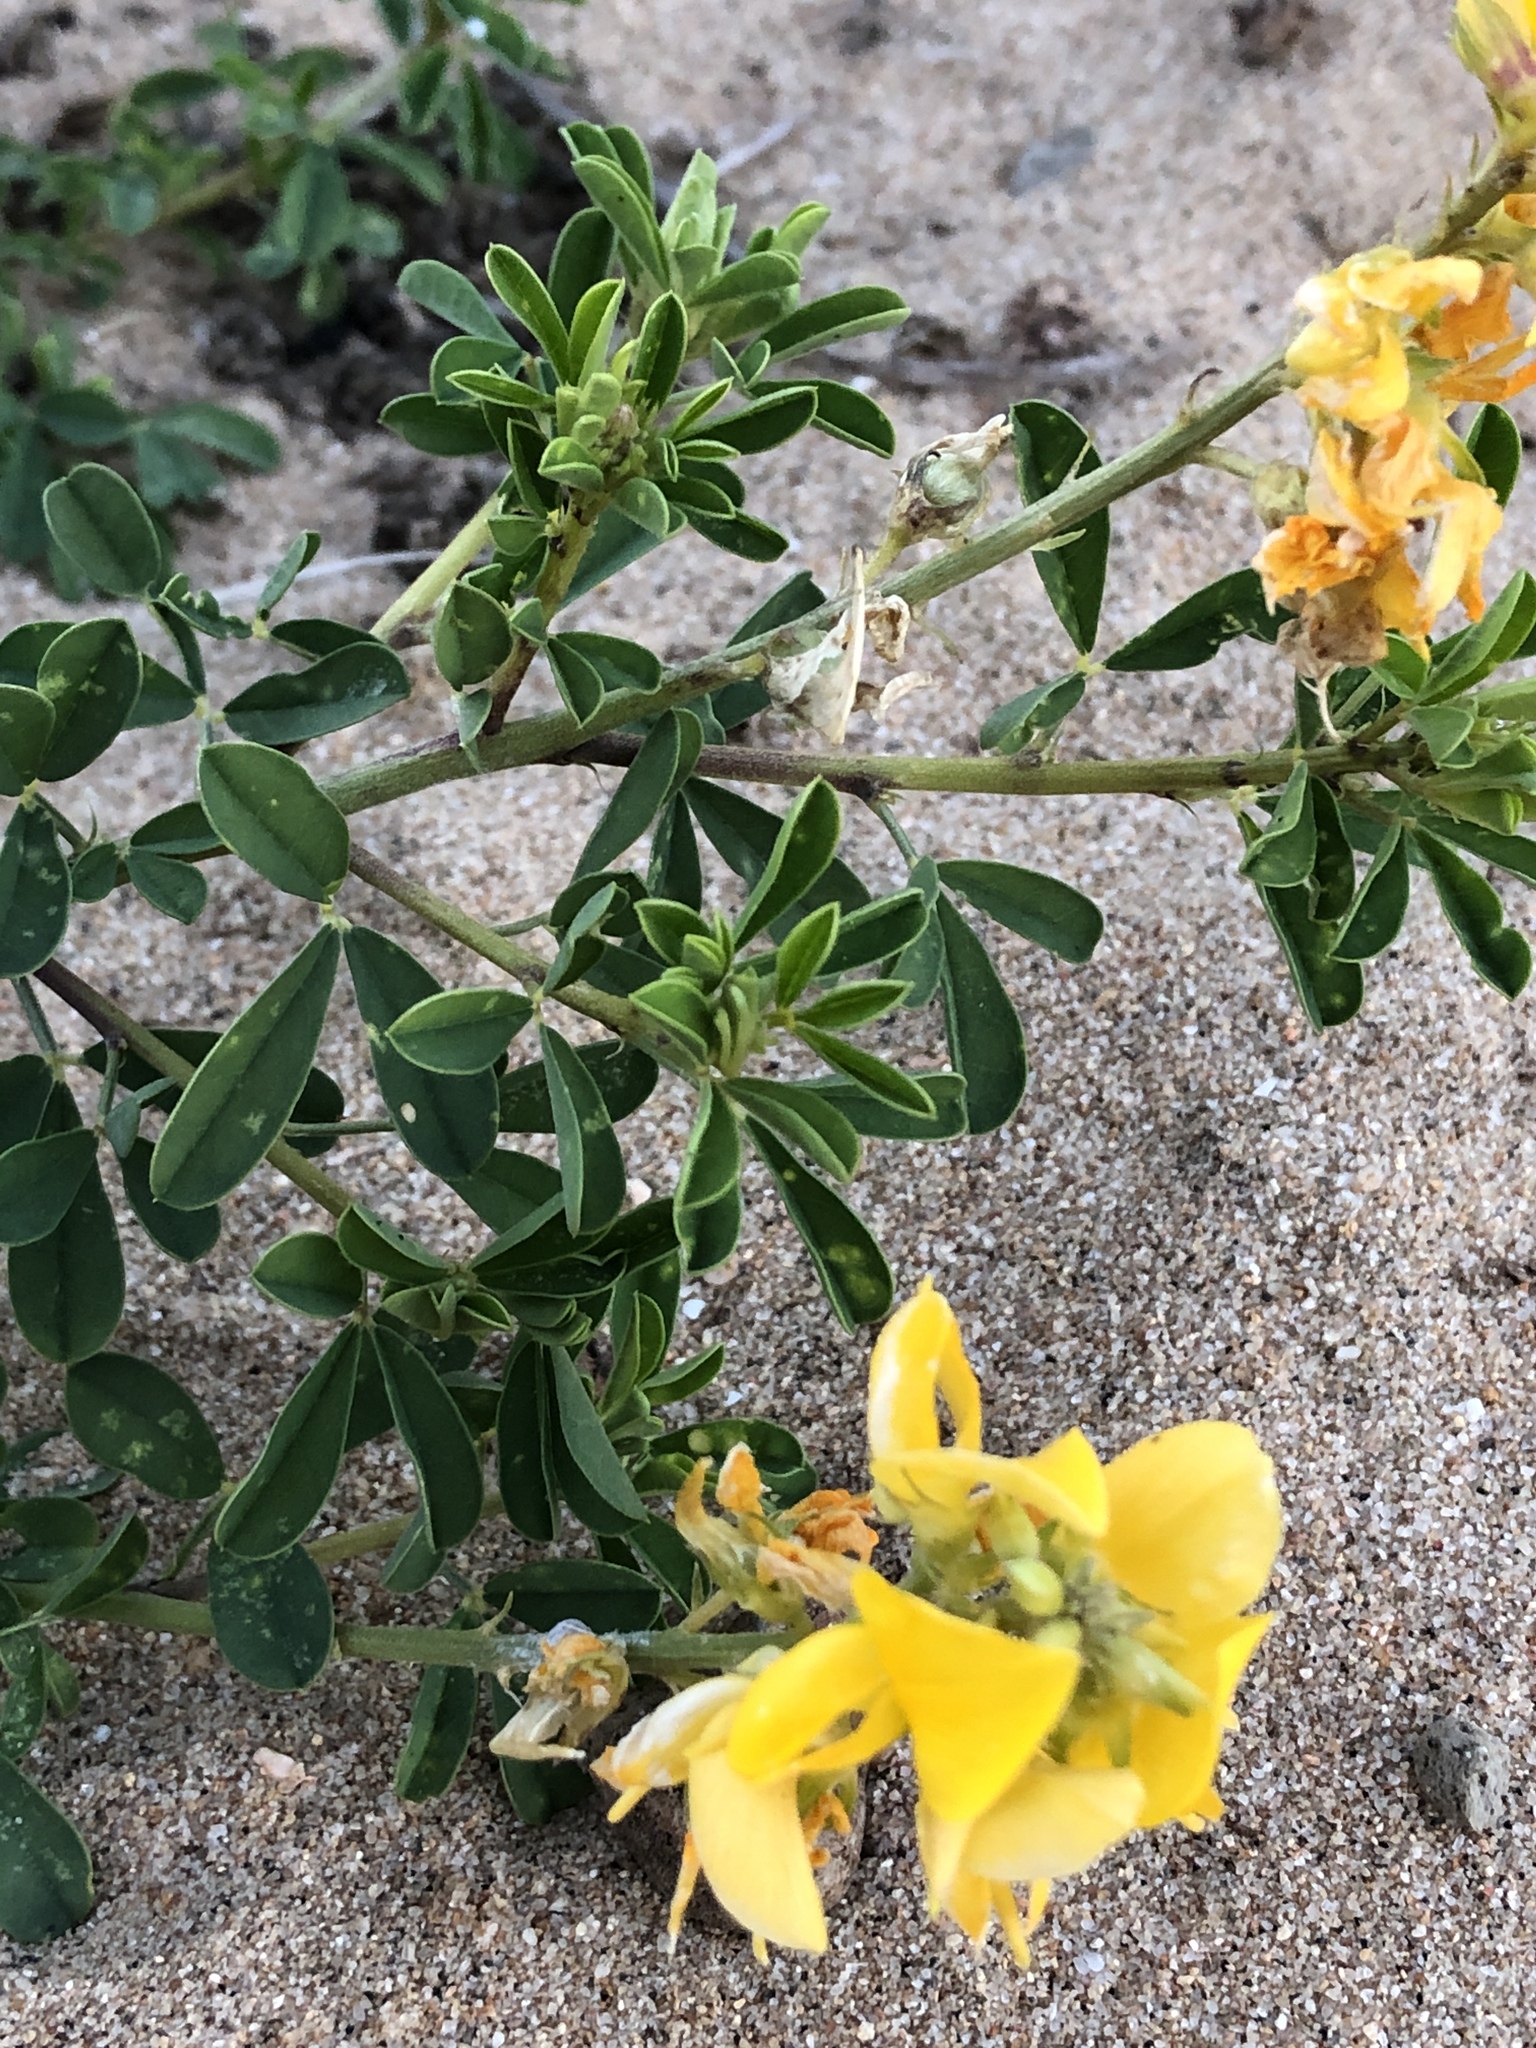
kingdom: Plantae
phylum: Tracheophyta
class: Magnoliopsida
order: Fabales
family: Fabaceae
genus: Crotalaria
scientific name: Crotalaria medicaginea
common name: Trefoil rattlepod
